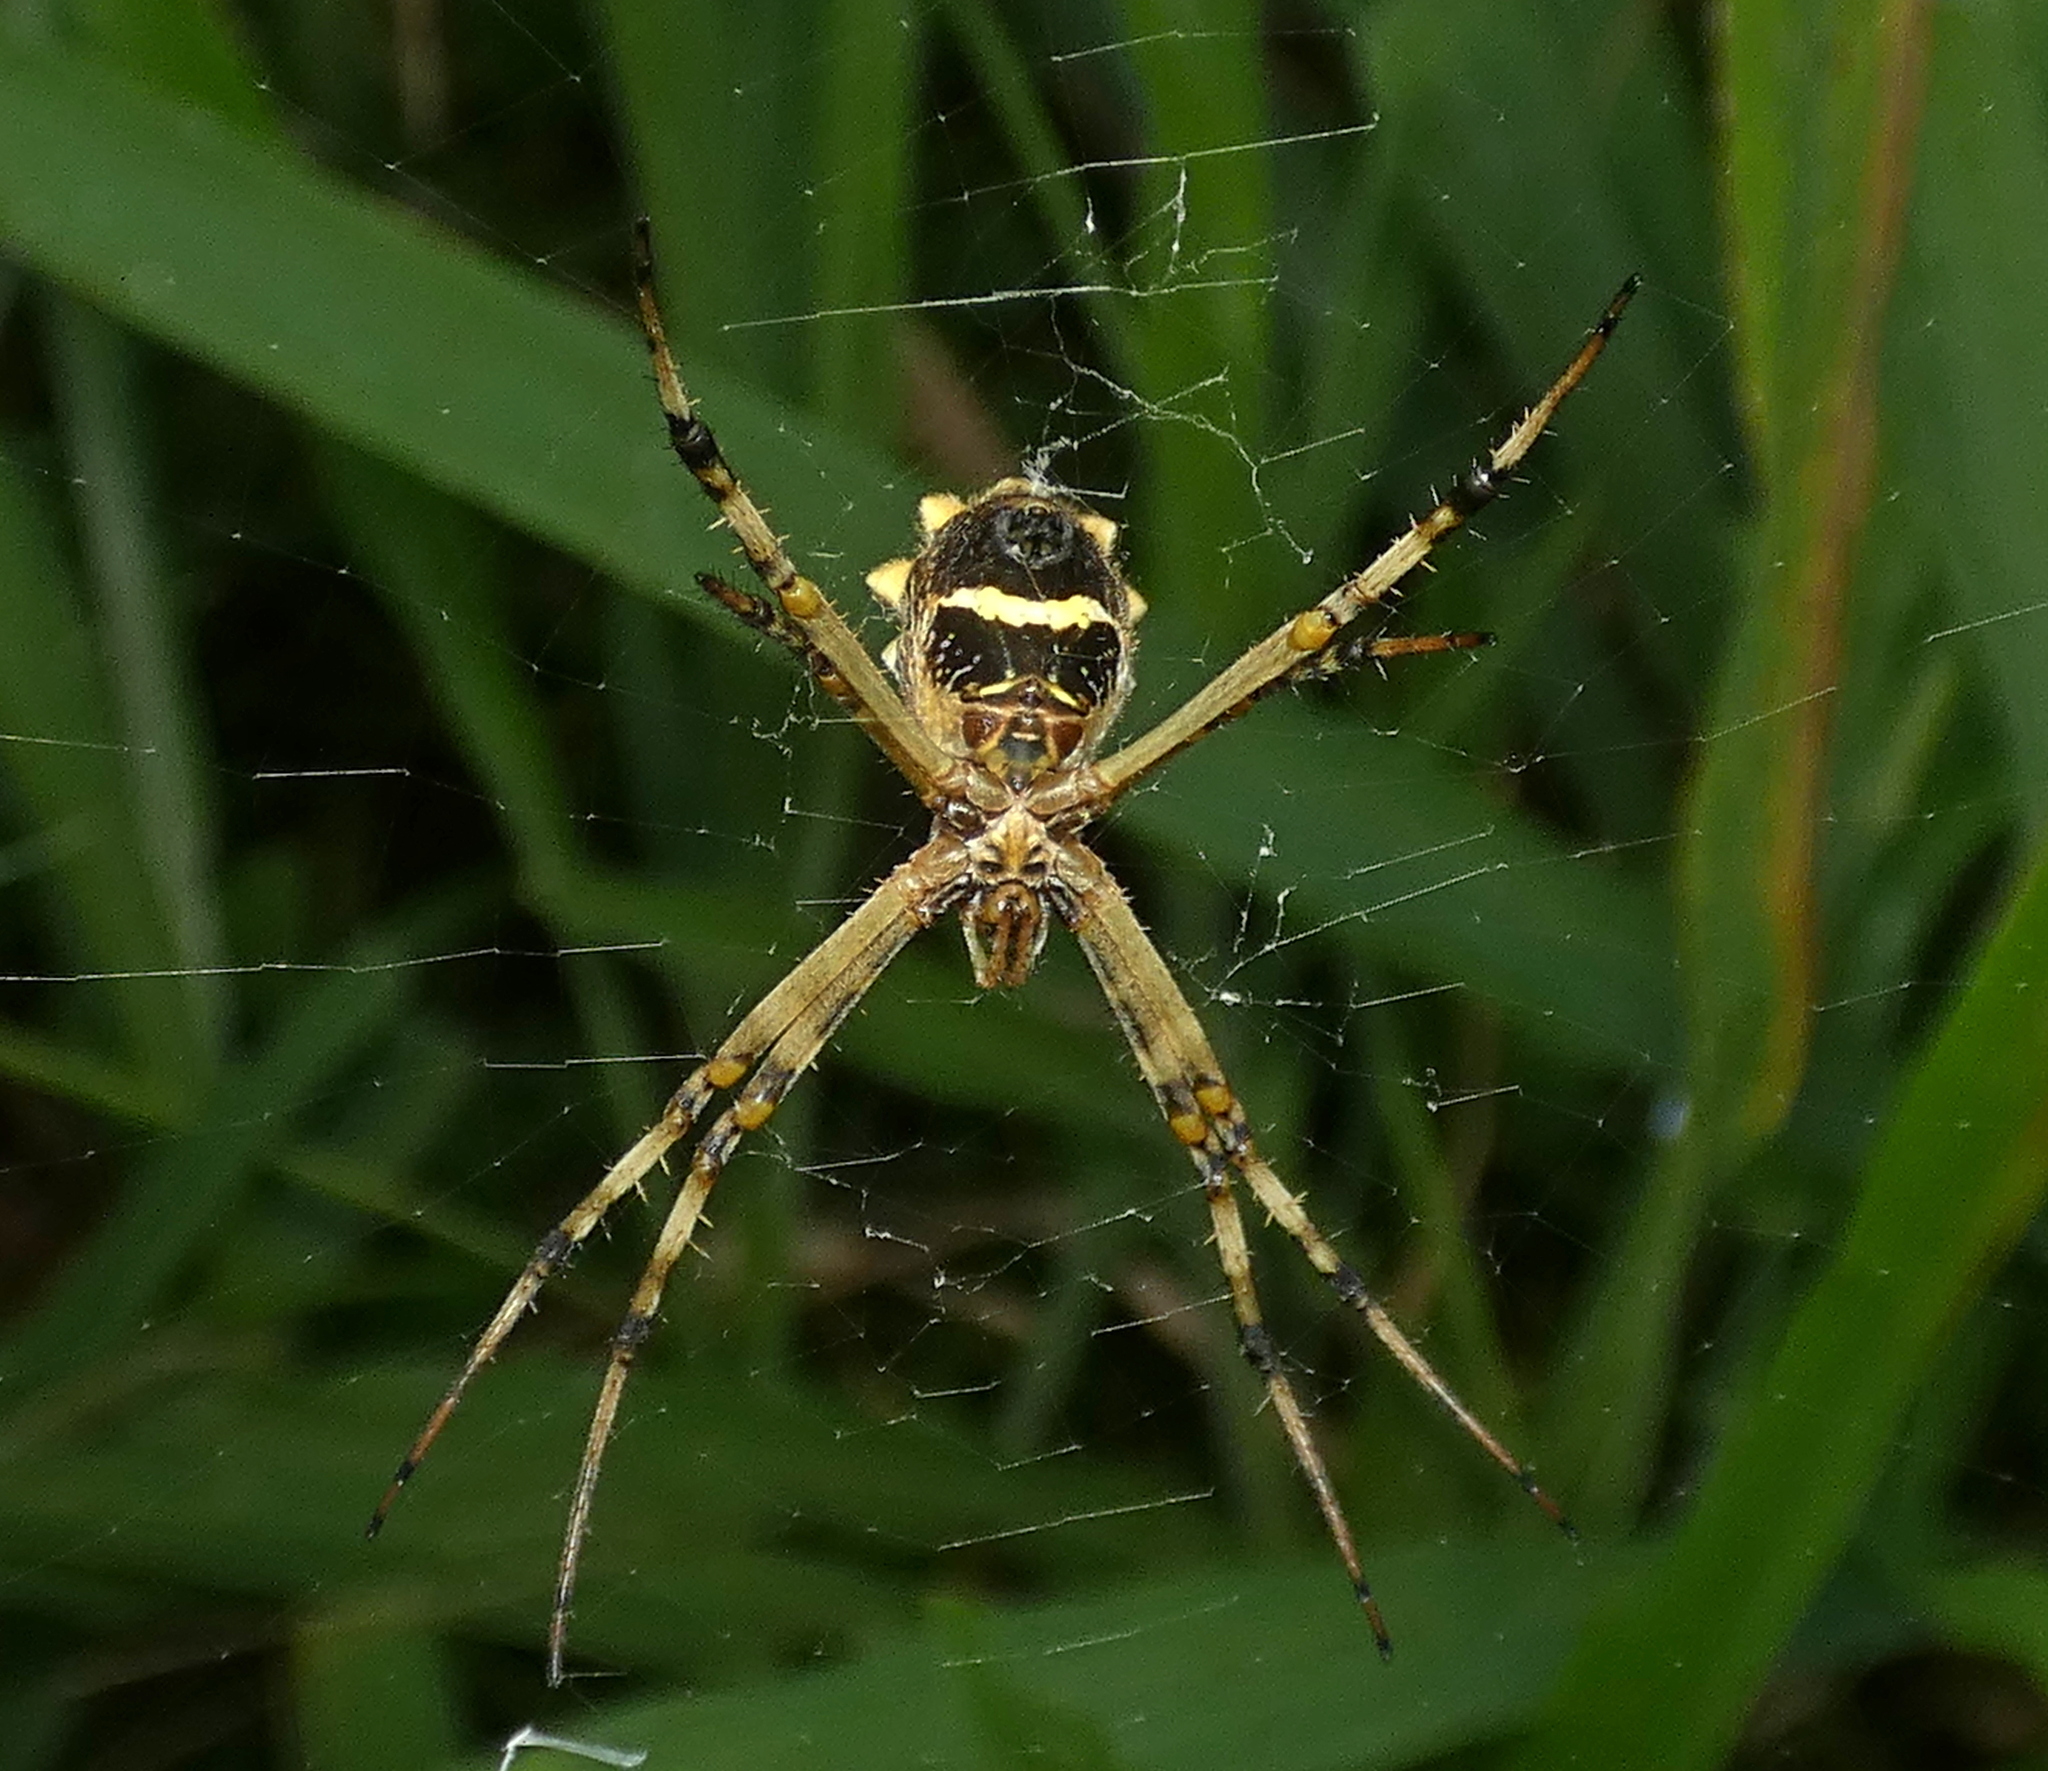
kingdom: Animalia
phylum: Arthropoda
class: Arachnida
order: Araneae
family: Araneidae
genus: Argiope
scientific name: Argiope argentata
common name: Orb weavers
